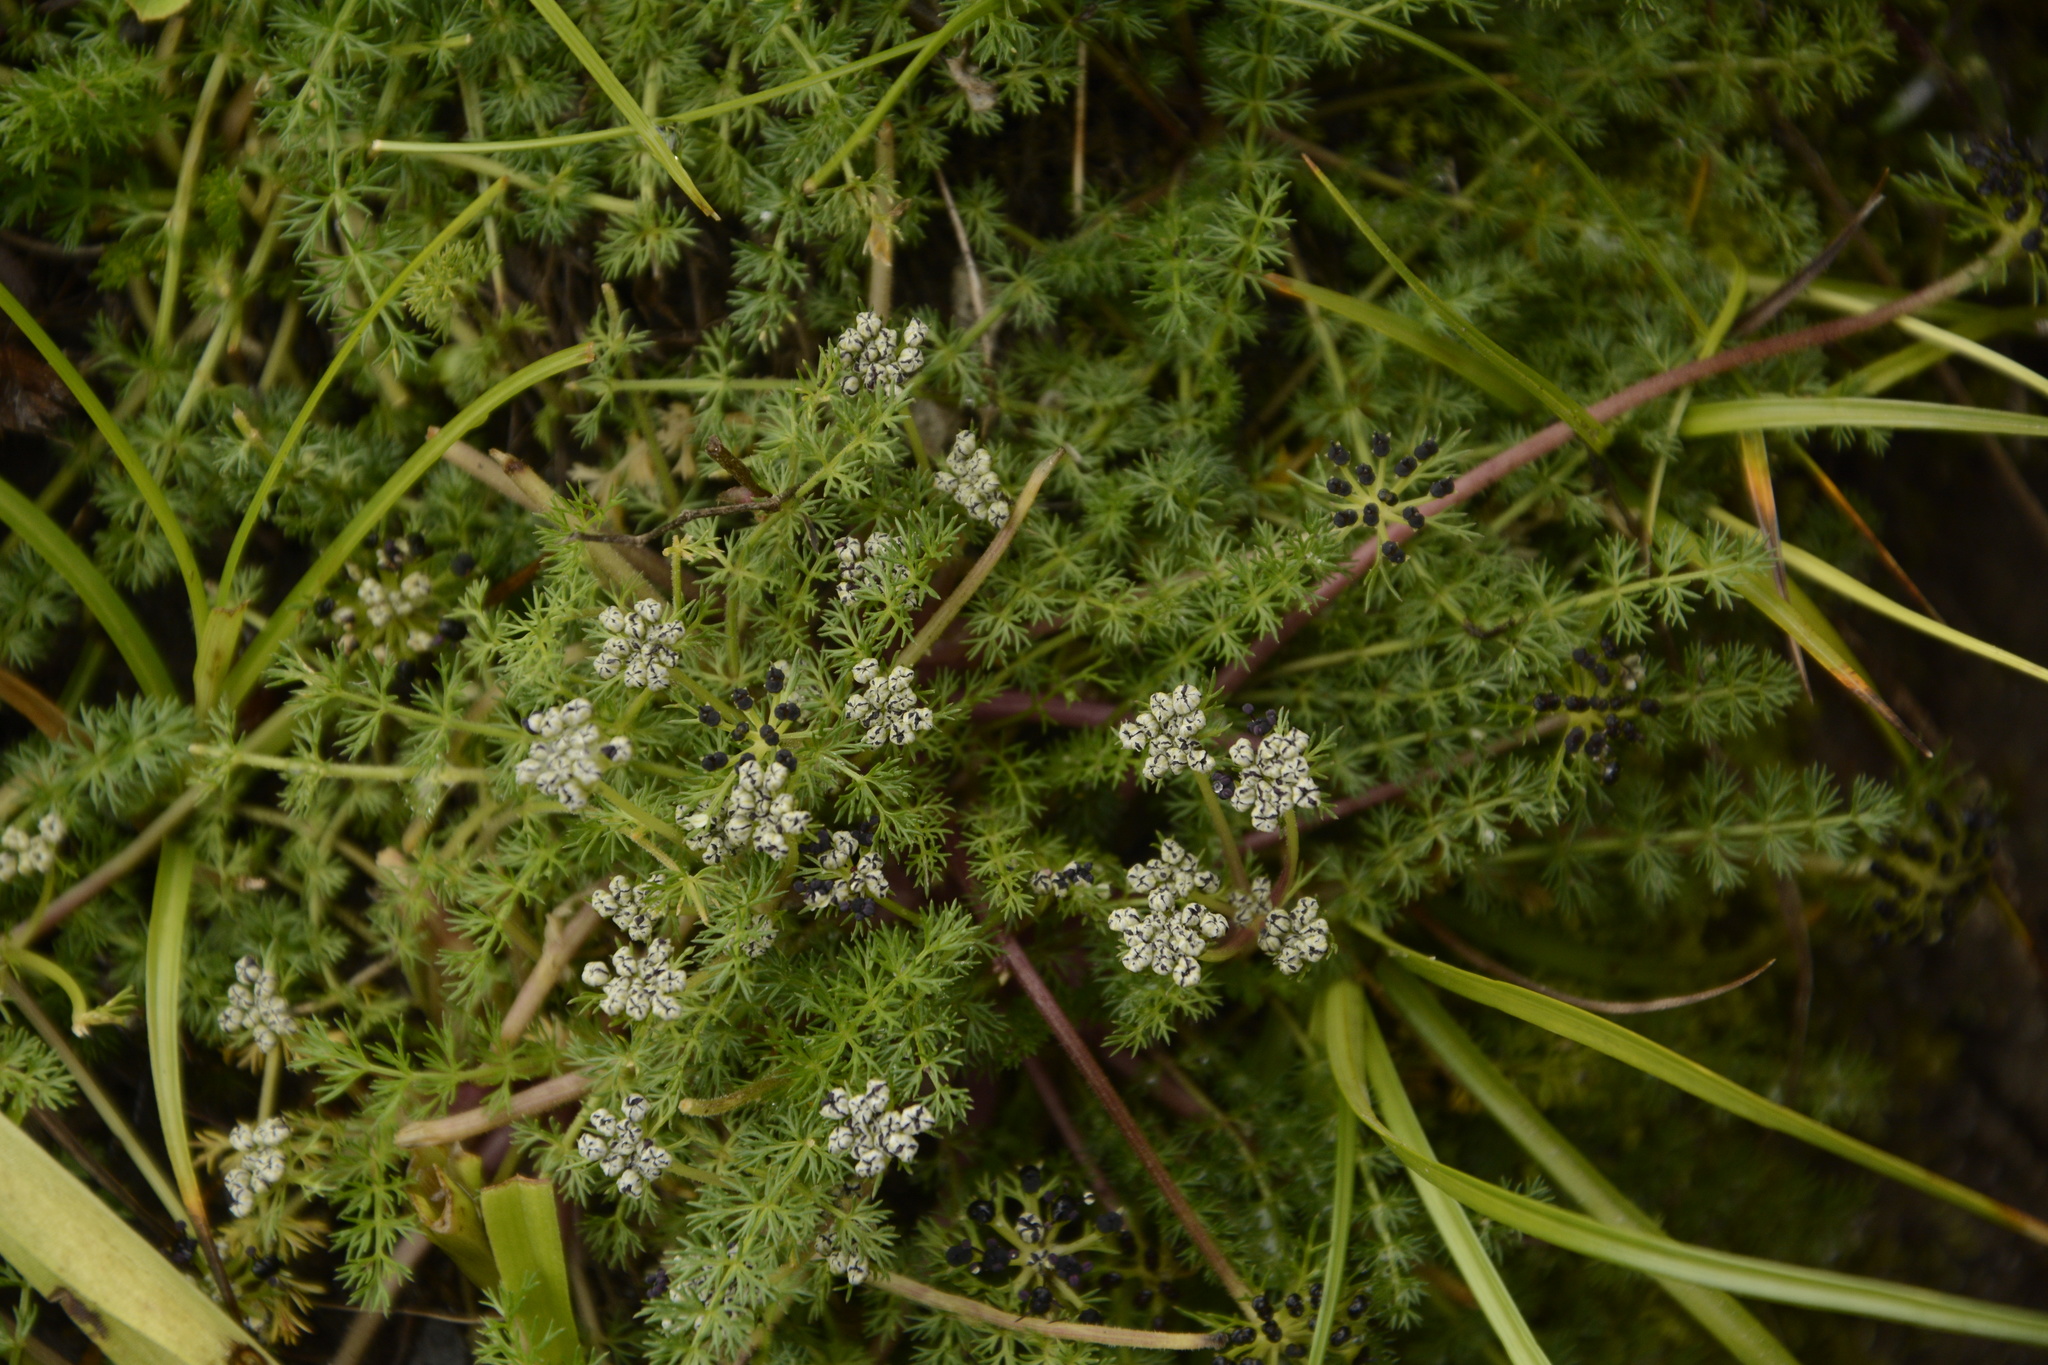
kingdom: Plantae
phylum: Tracheophyta
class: Magnoliopsida
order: Apiales
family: Apiaceae
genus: Trachydium
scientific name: Trachydium roylei
